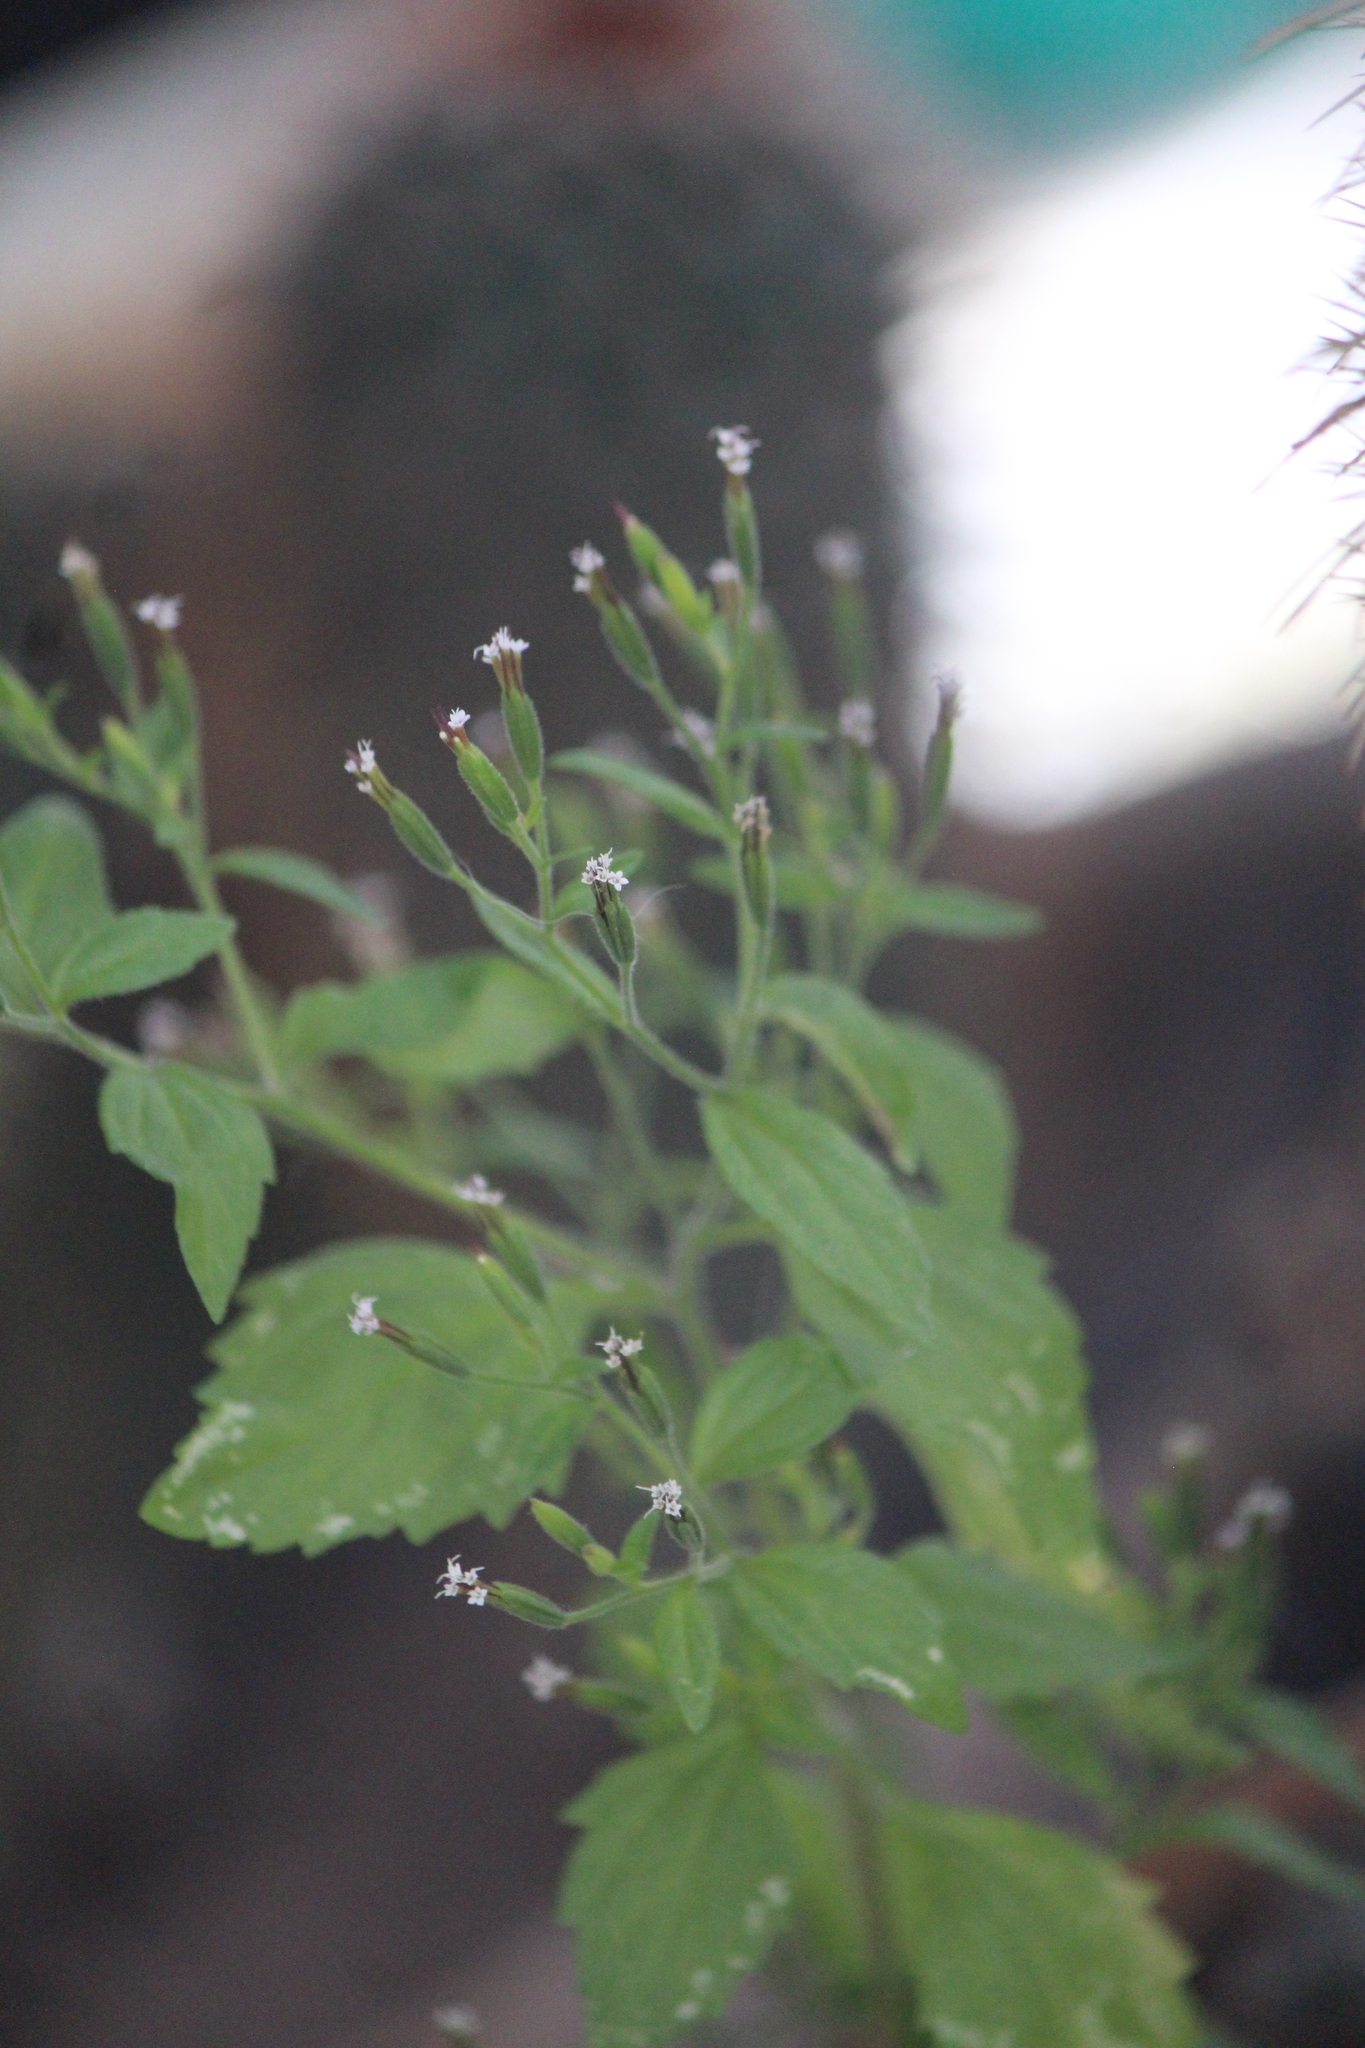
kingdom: Plantae
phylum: Tracheophyta
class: Magnoliopsida
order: Asterales
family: Asteraceae
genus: Stevia
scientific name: Stevia micrantha
